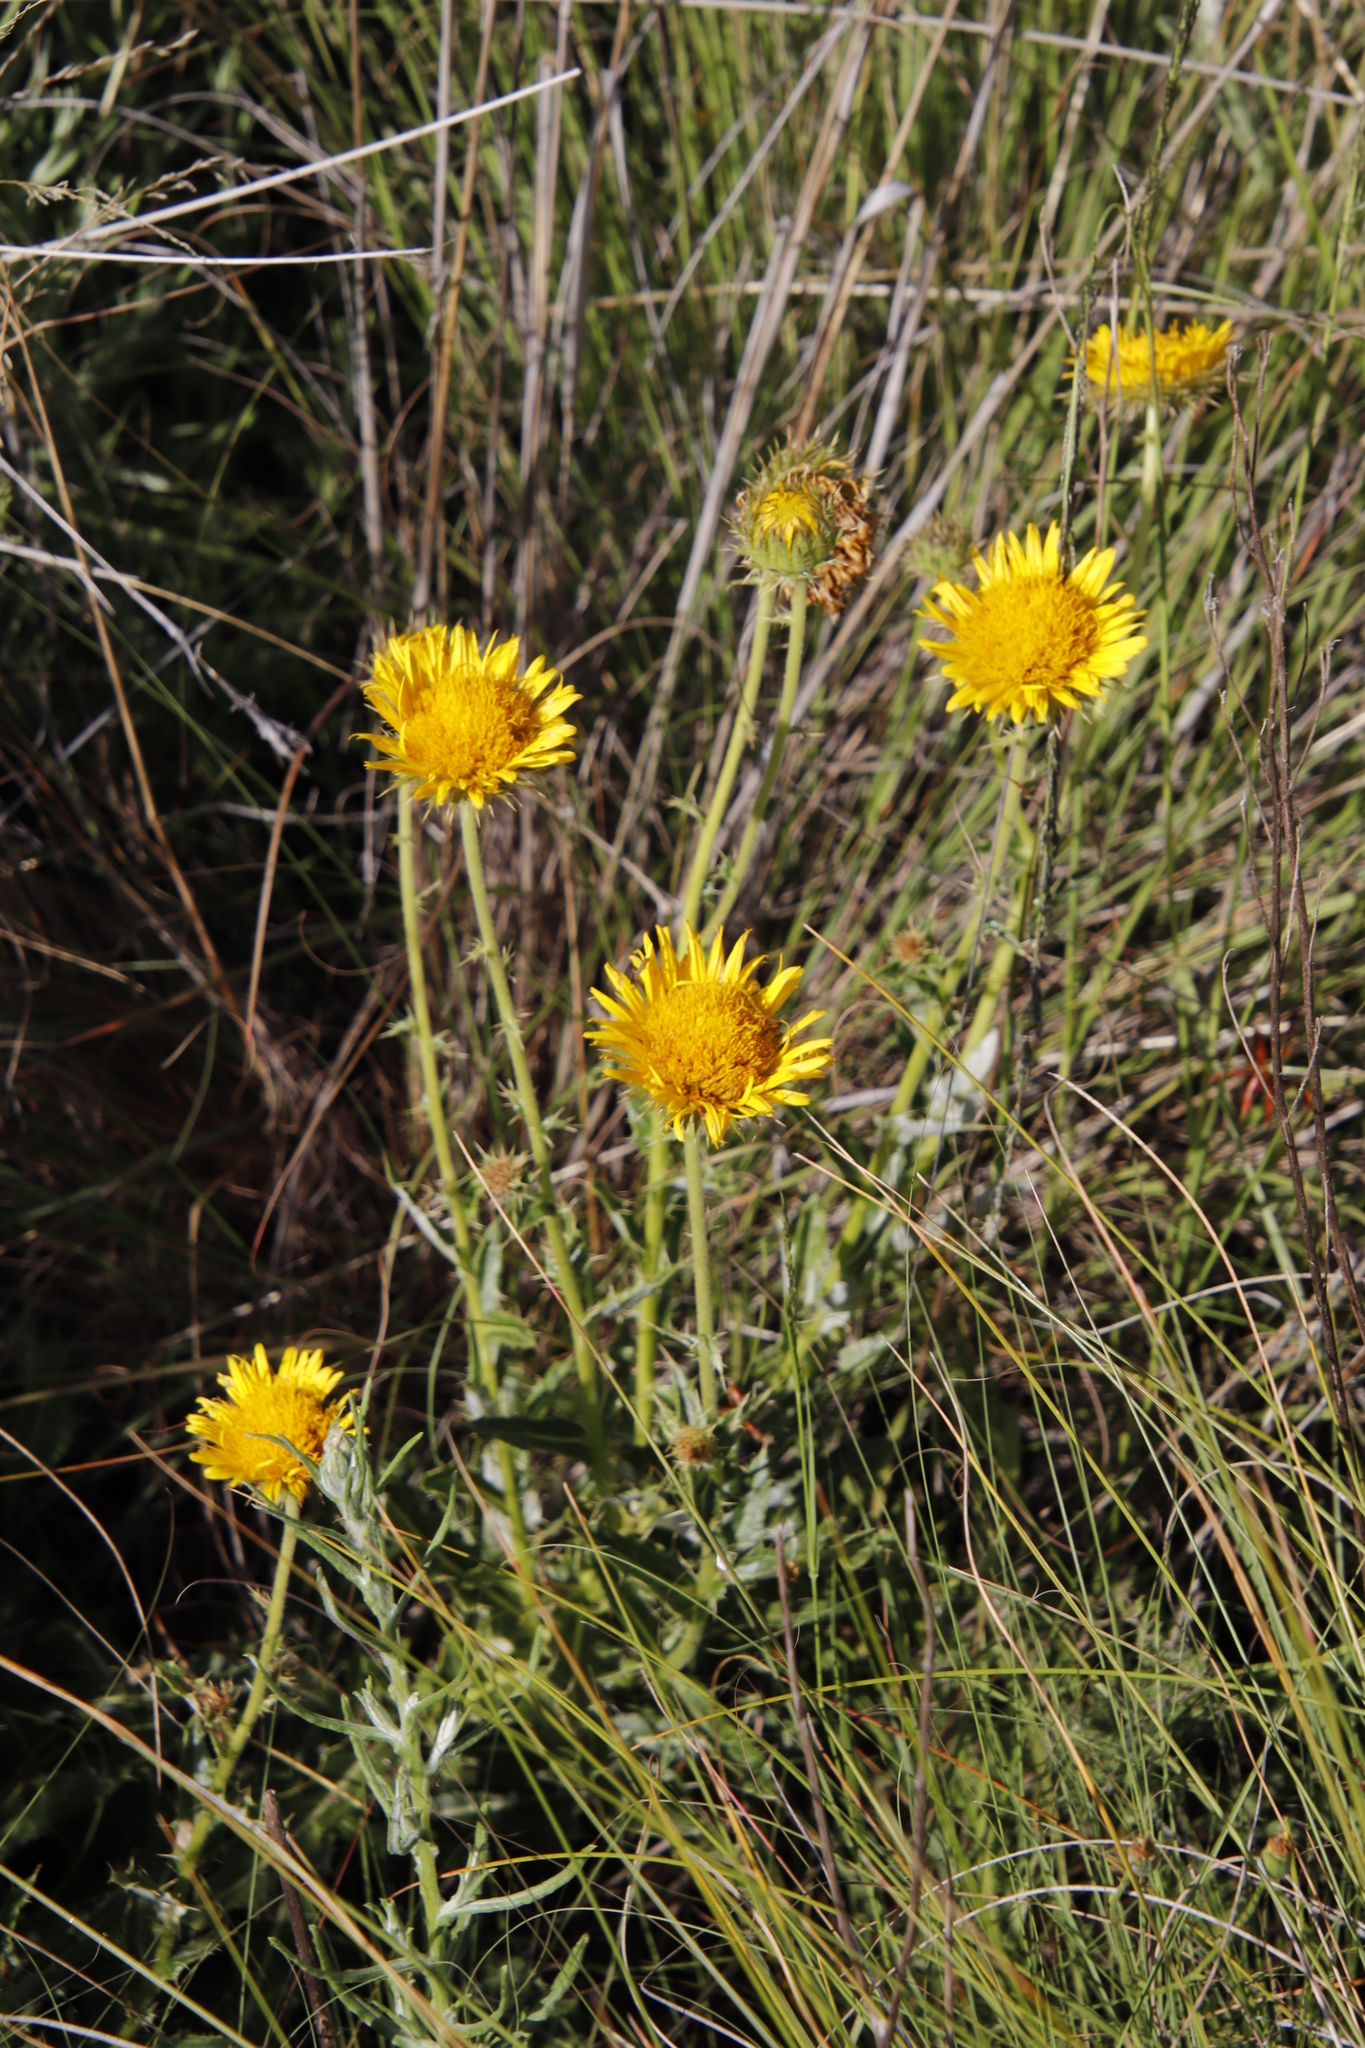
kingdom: Plantae
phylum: Tracheophyta
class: Magnoliopsida
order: Asterales
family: Asteraceae
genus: Berkheya
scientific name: Berkheya discolor
